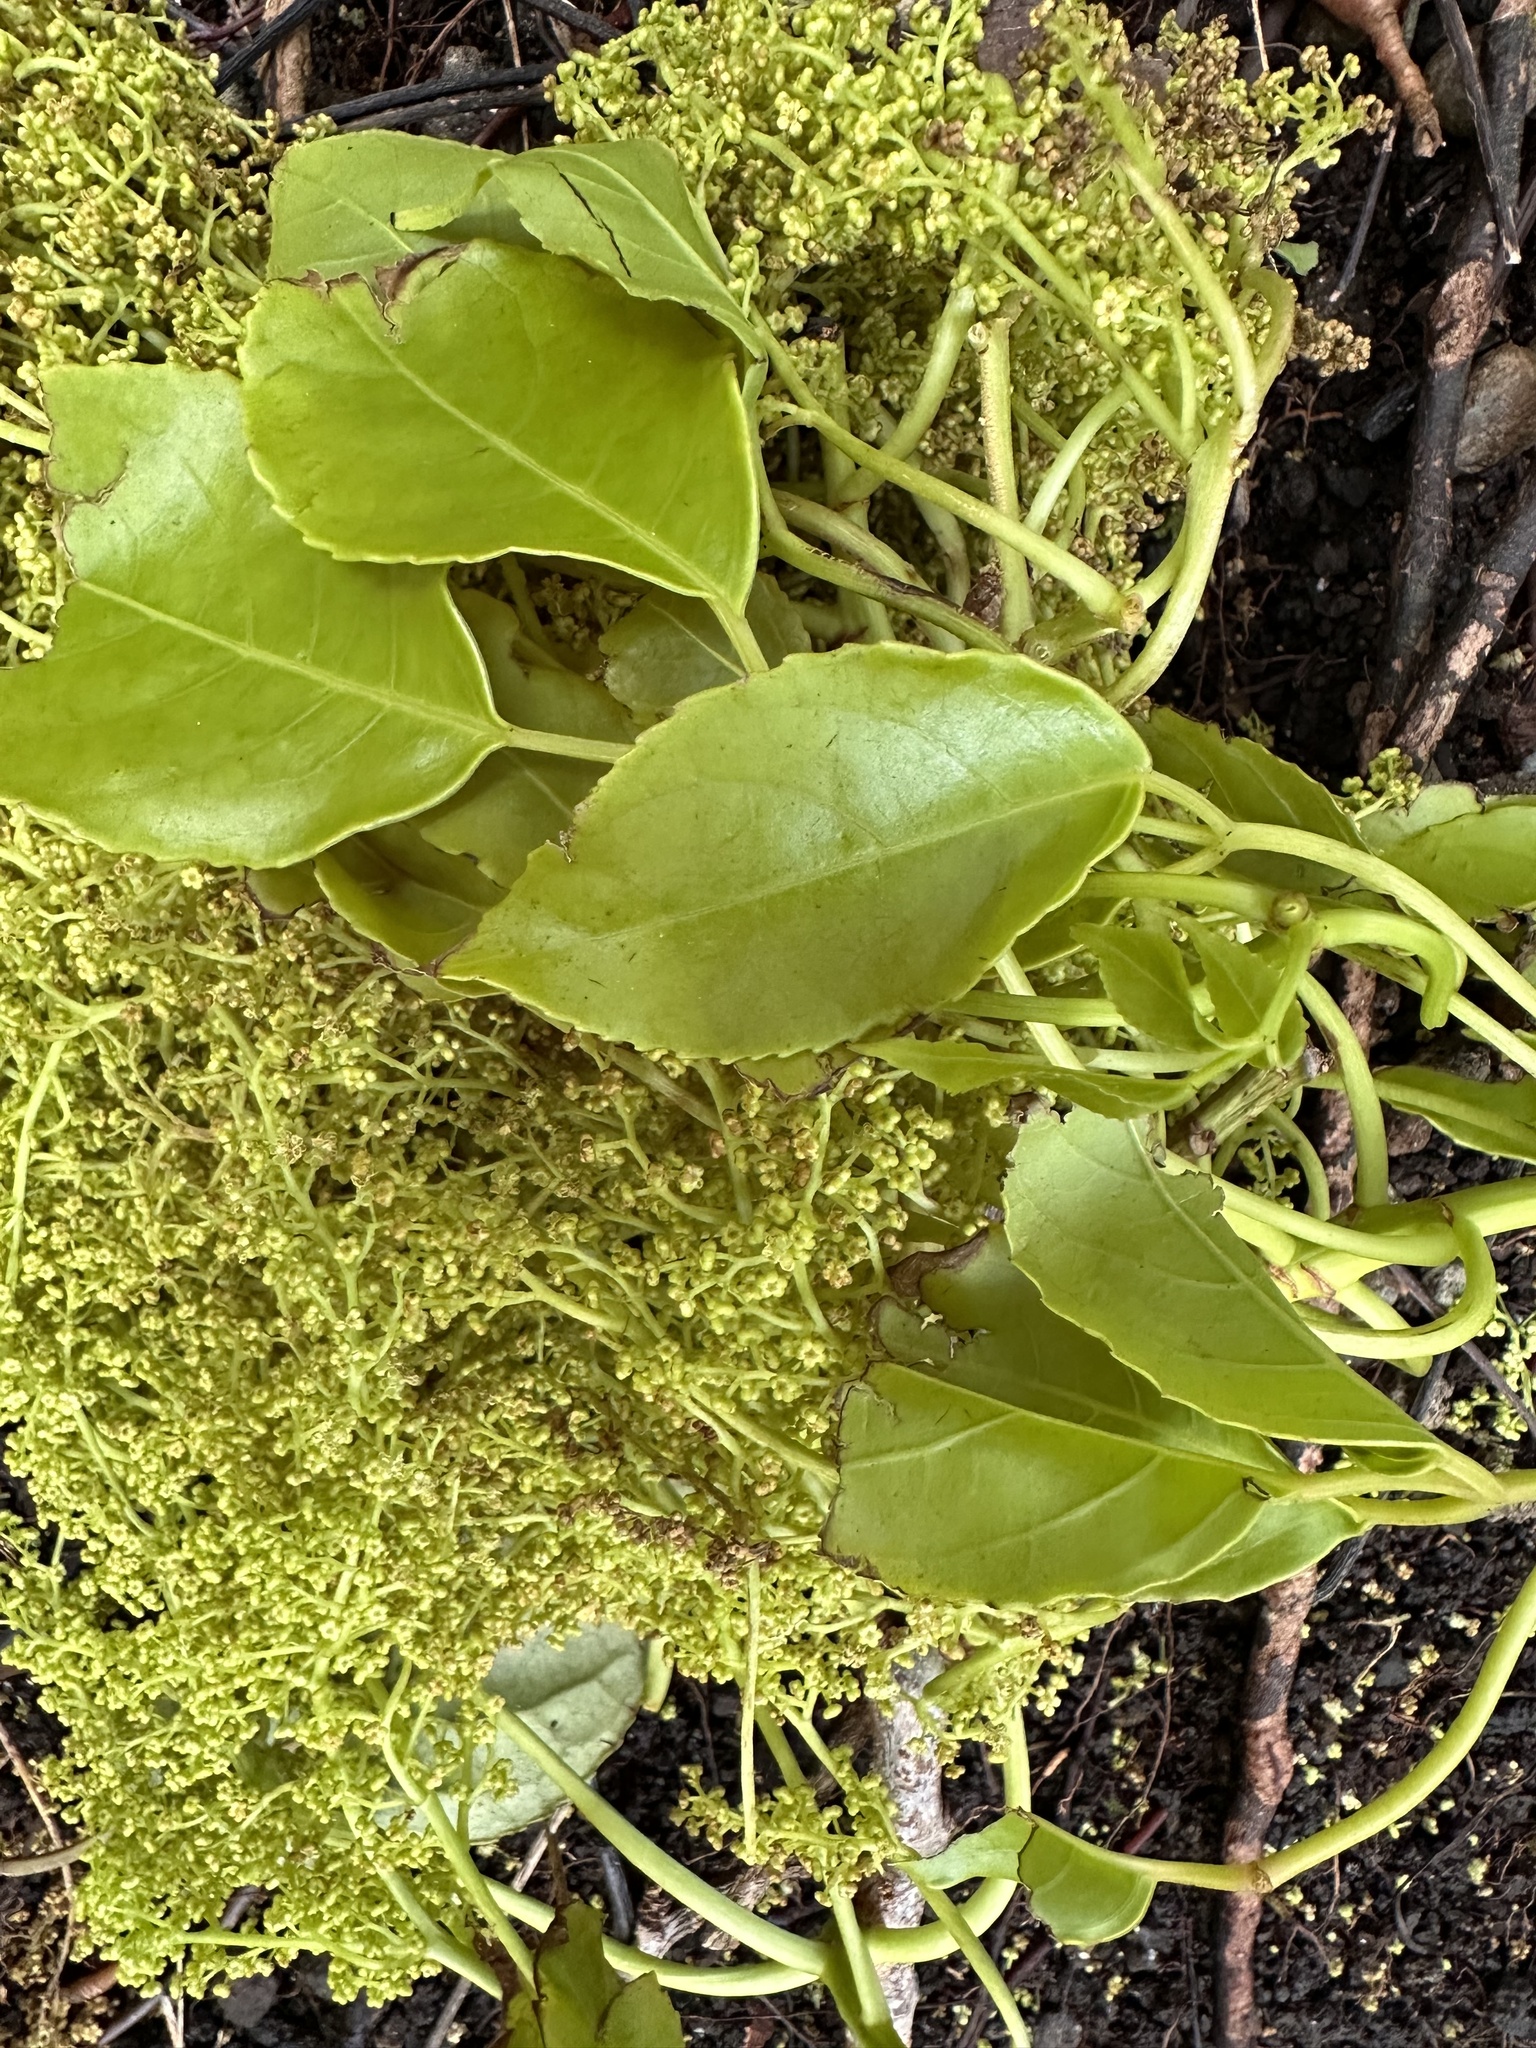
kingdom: Plantae
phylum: Tracheophyta
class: Magnoliopsida
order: Malpighiales
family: Phyllanthaceae
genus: Bischofia
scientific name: Bischofia javanica
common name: Javanese bishopwood
